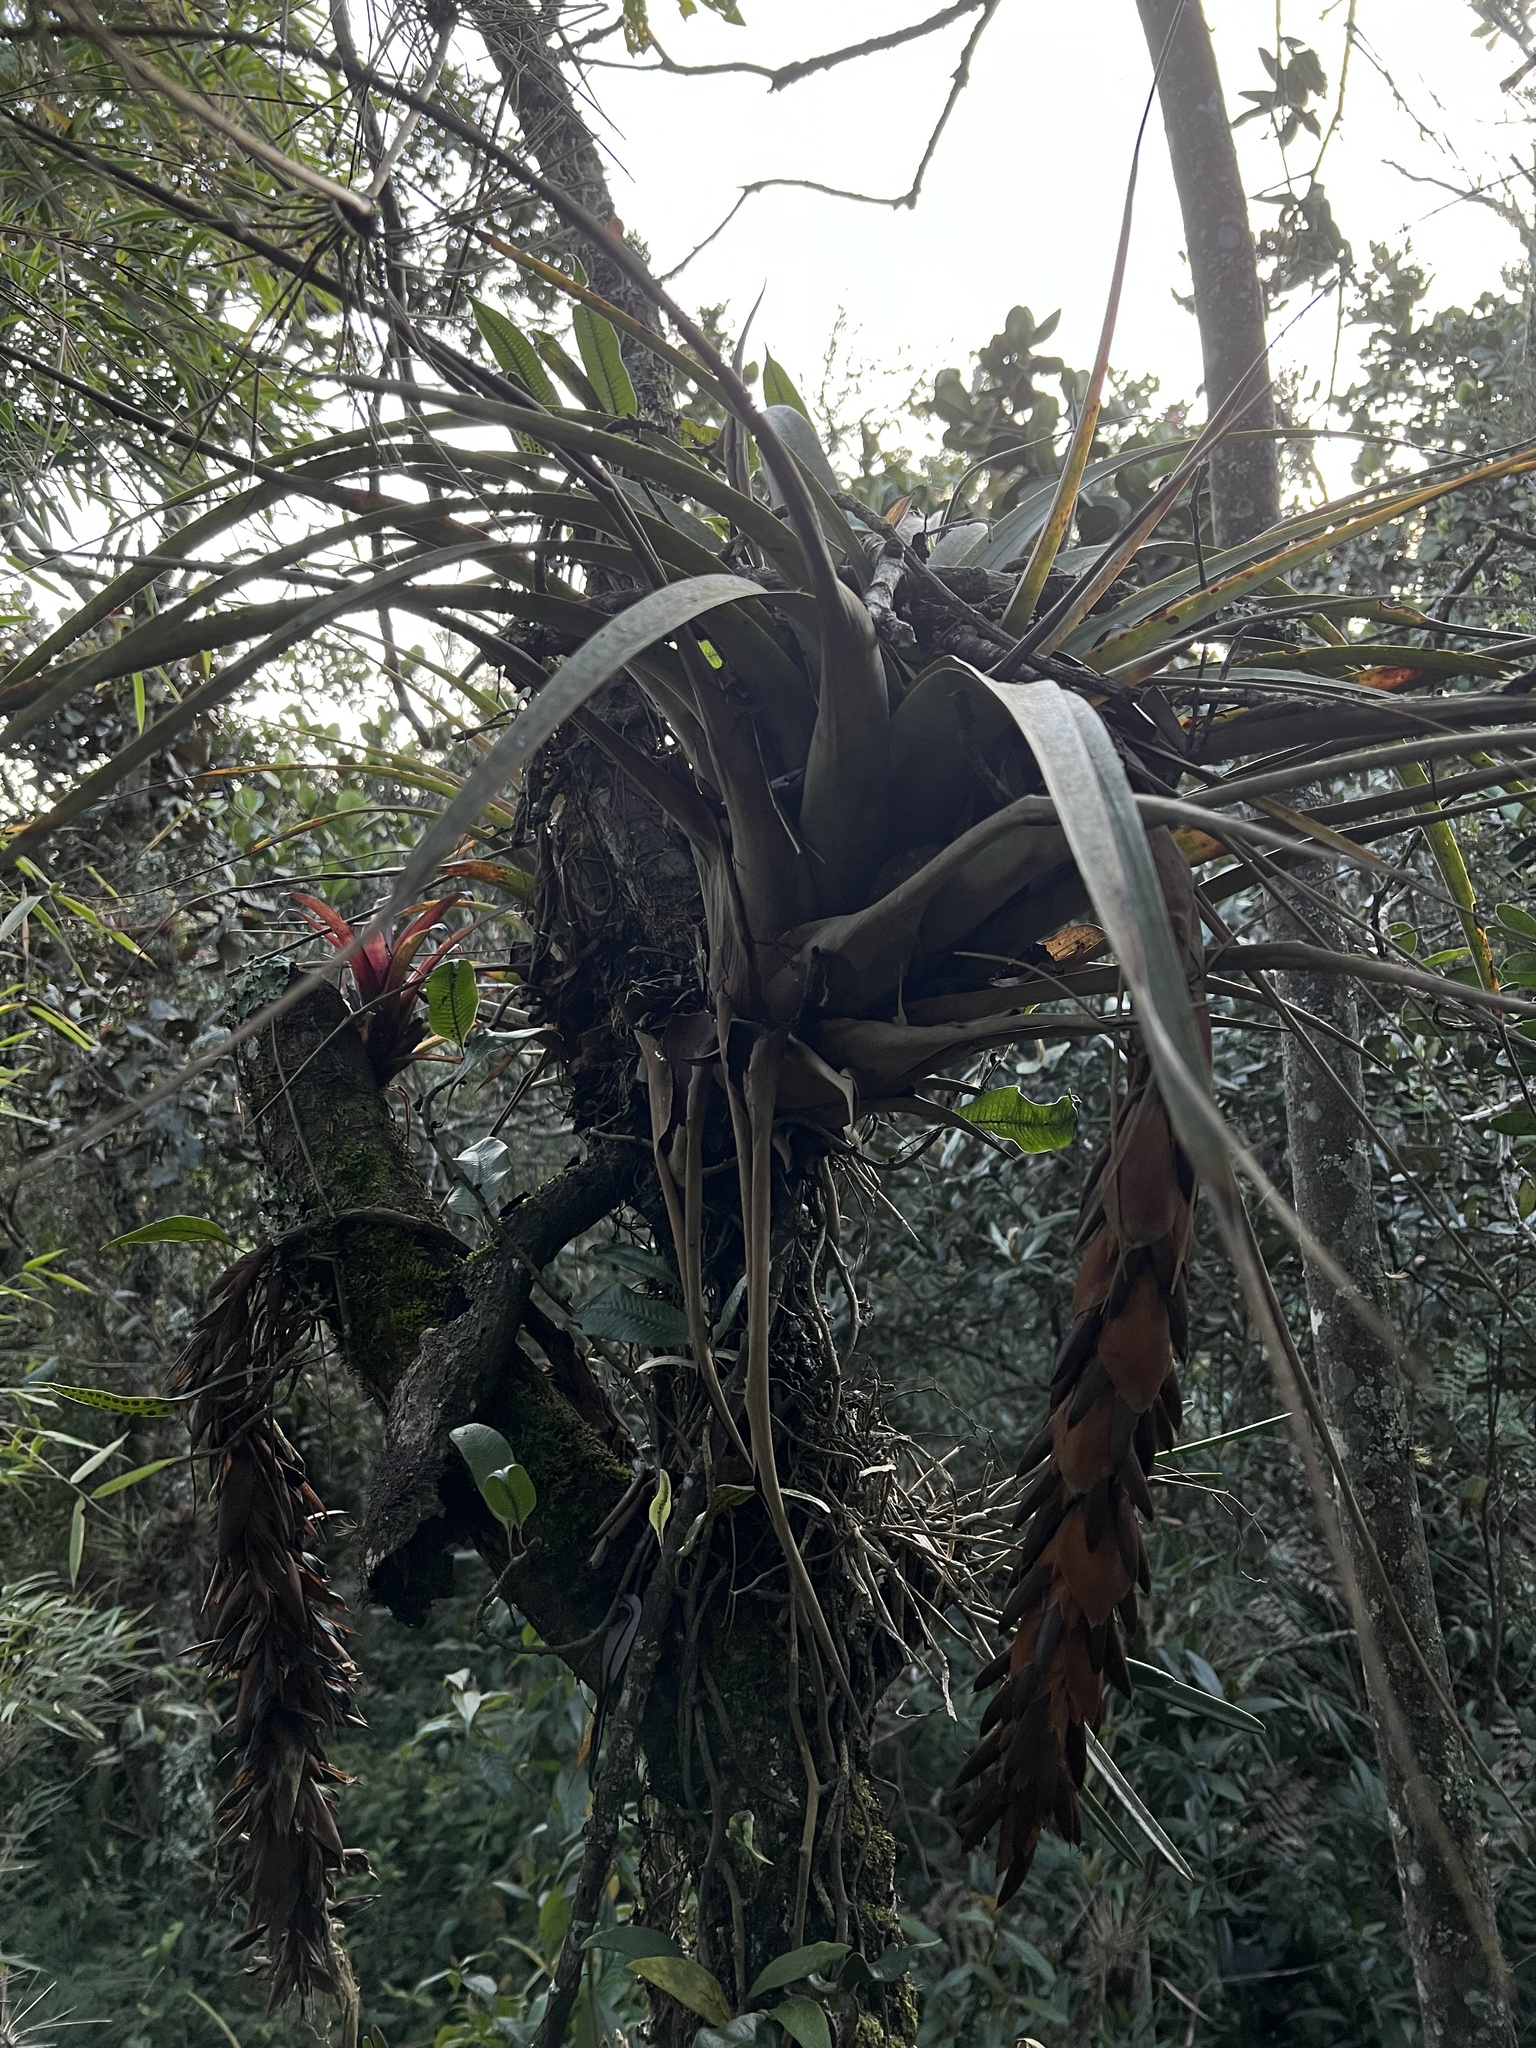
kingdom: Plantae
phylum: Tracheophyta
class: Liliopsida
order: Poales
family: Bromeliaceae
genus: Vriesea
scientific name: Vriesea tequendamae
